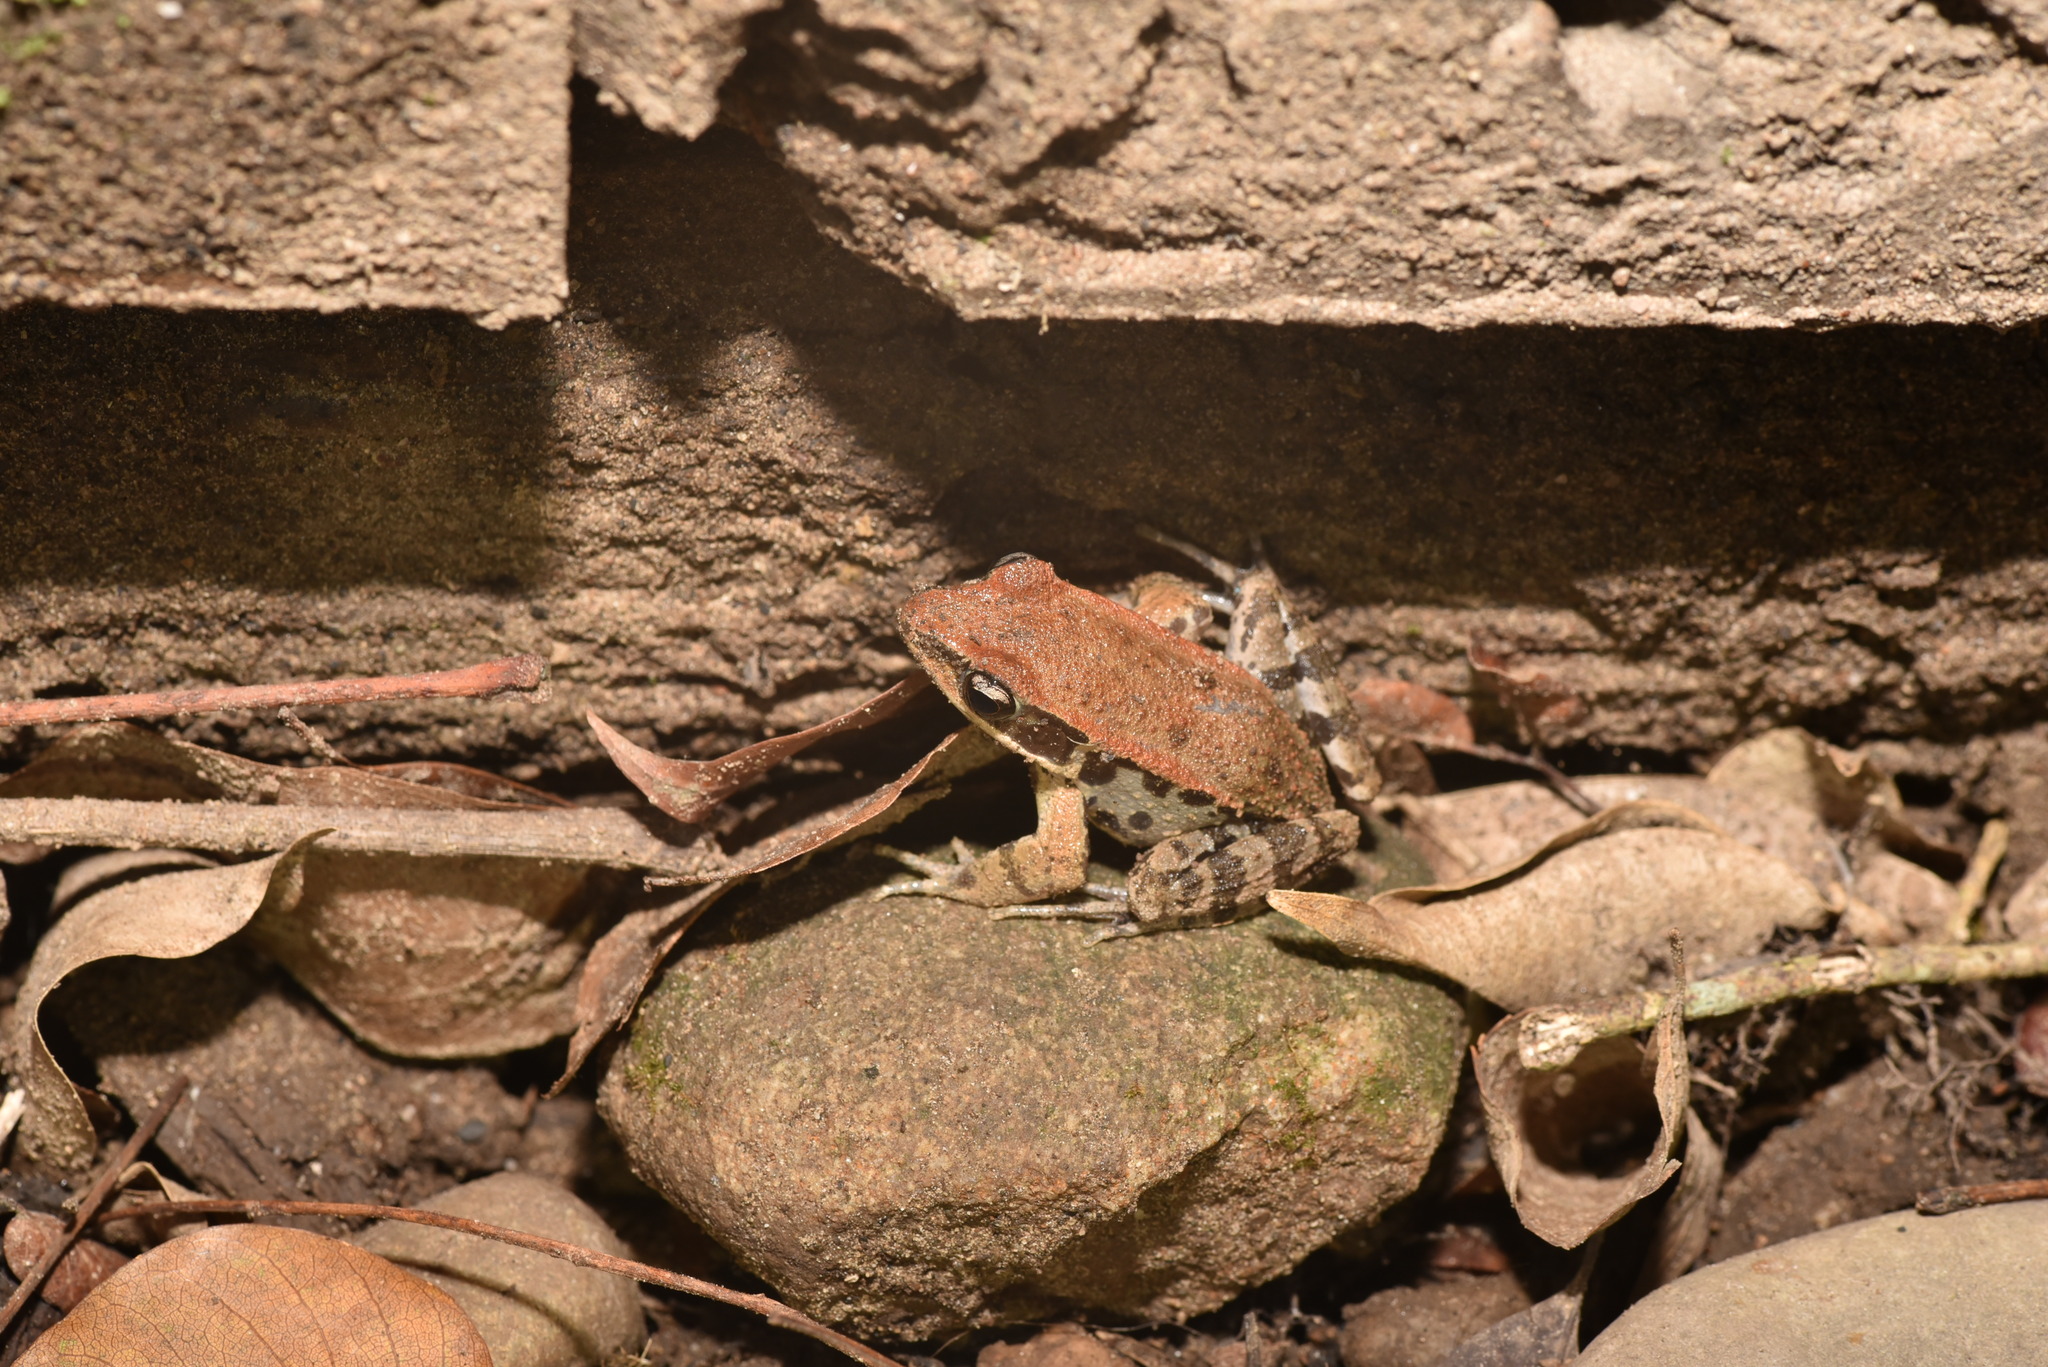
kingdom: Animalia
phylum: Chordata
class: Amphibia
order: Anura
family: Ranidae
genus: Hylarana
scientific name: Hylarana latouchii
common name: Broad-folded frog
